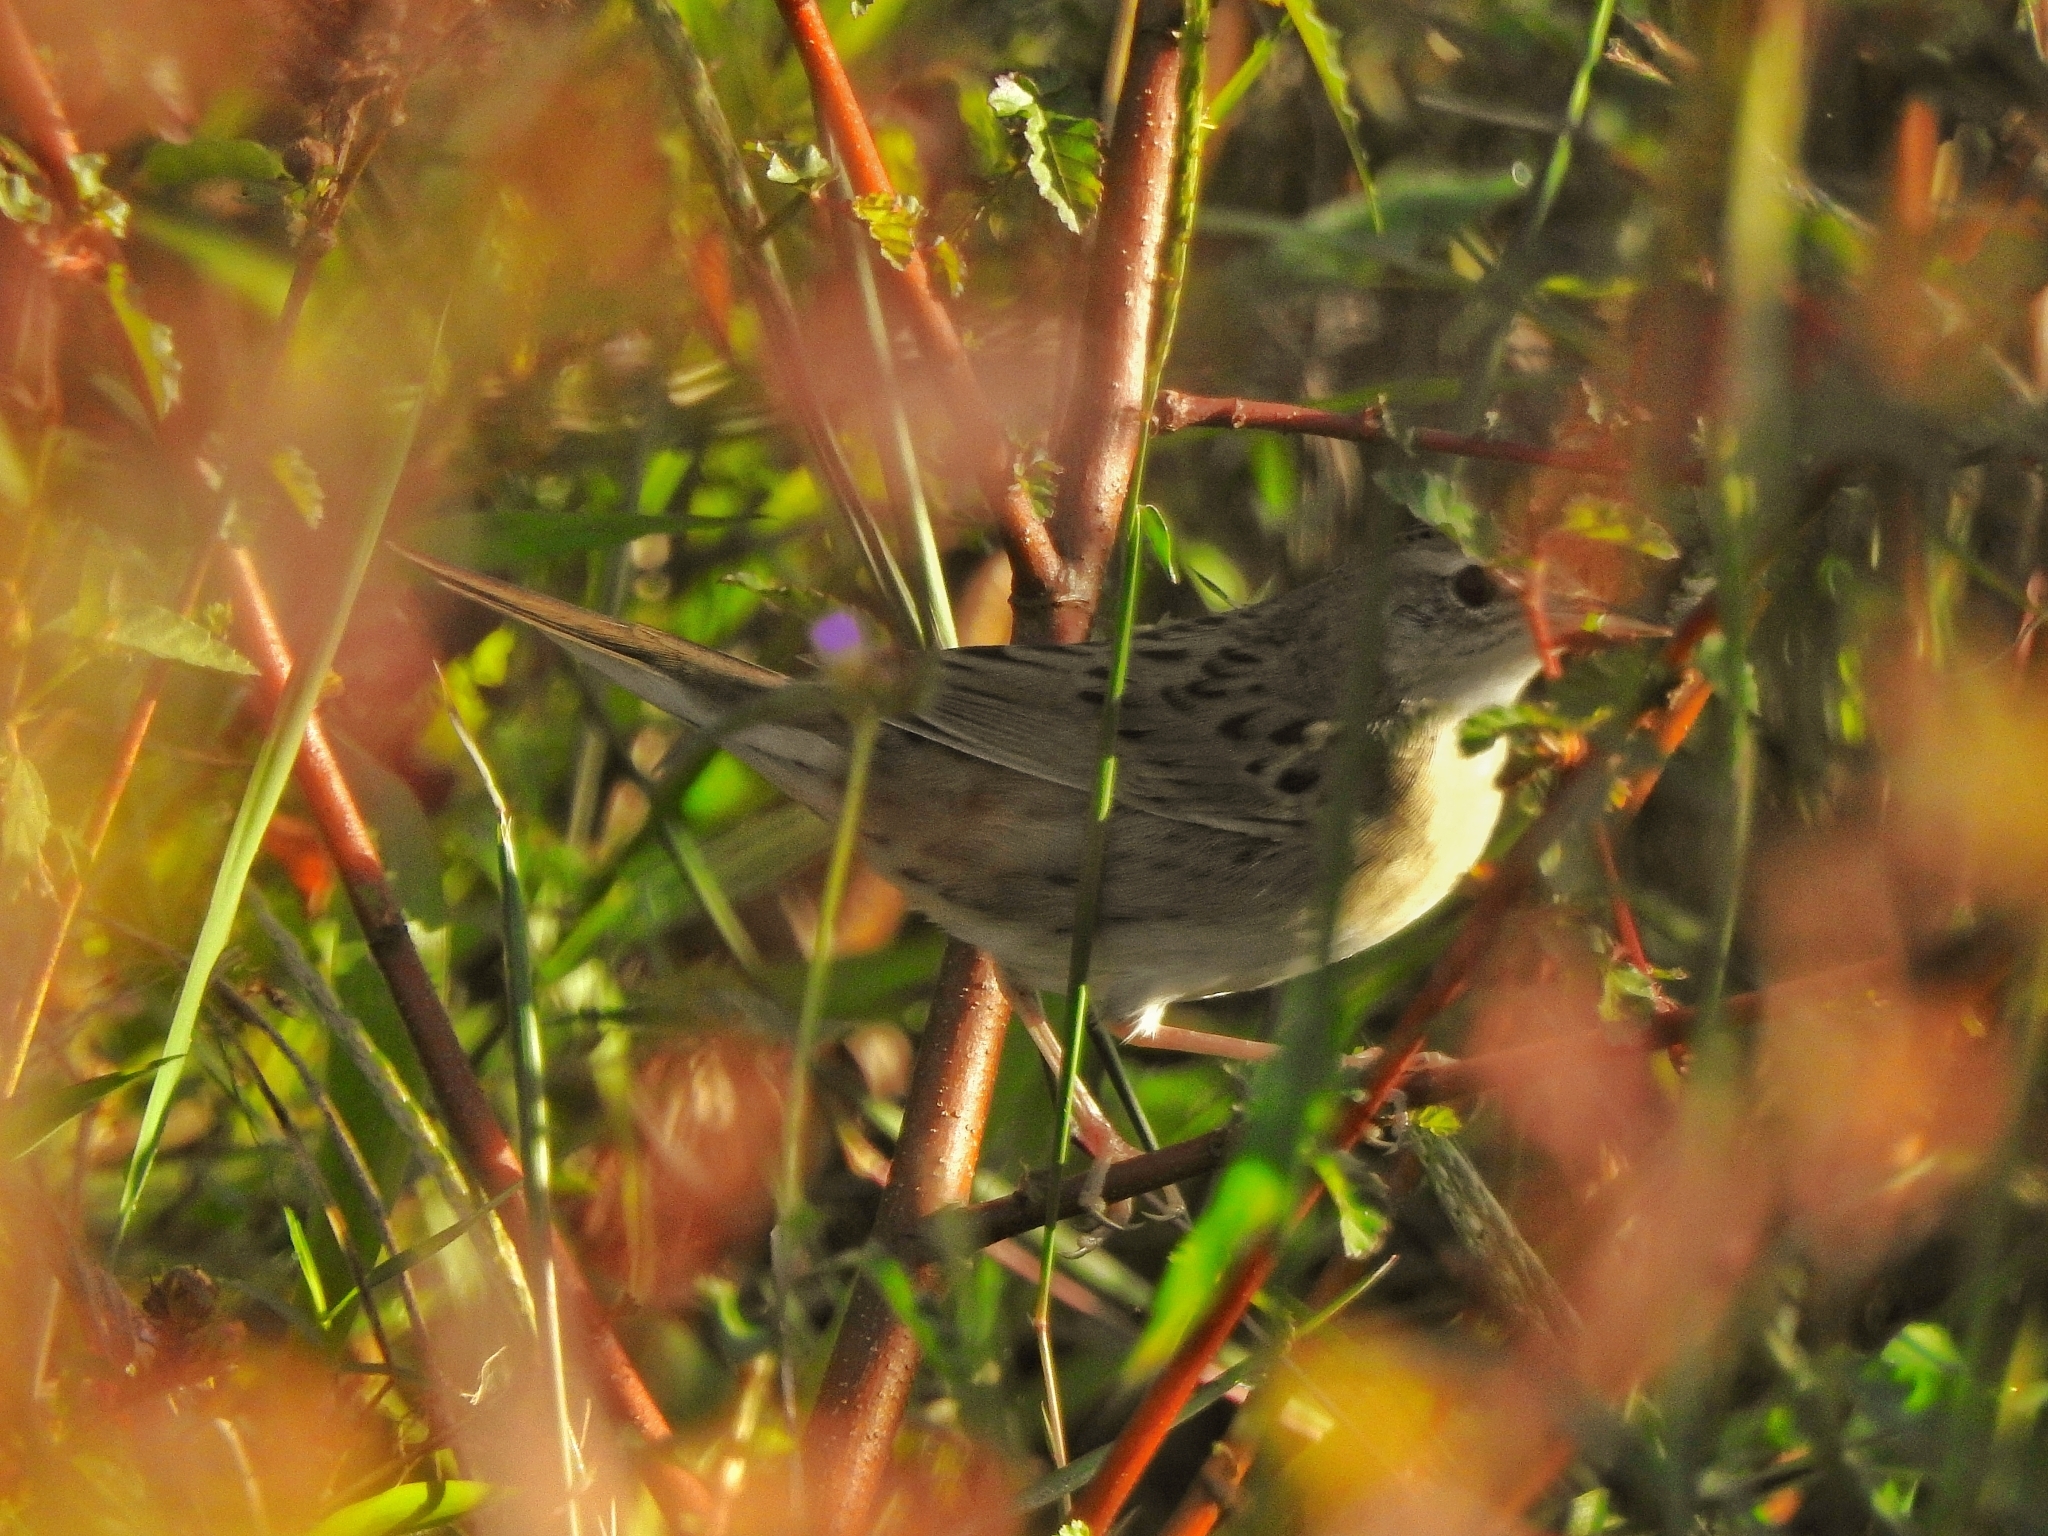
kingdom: Animalia
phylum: Chordata
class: Aves
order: Passeriformes
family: Locustellidae
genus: Locustella
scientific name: Locustella naevia
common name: Common grasshopper warbler
